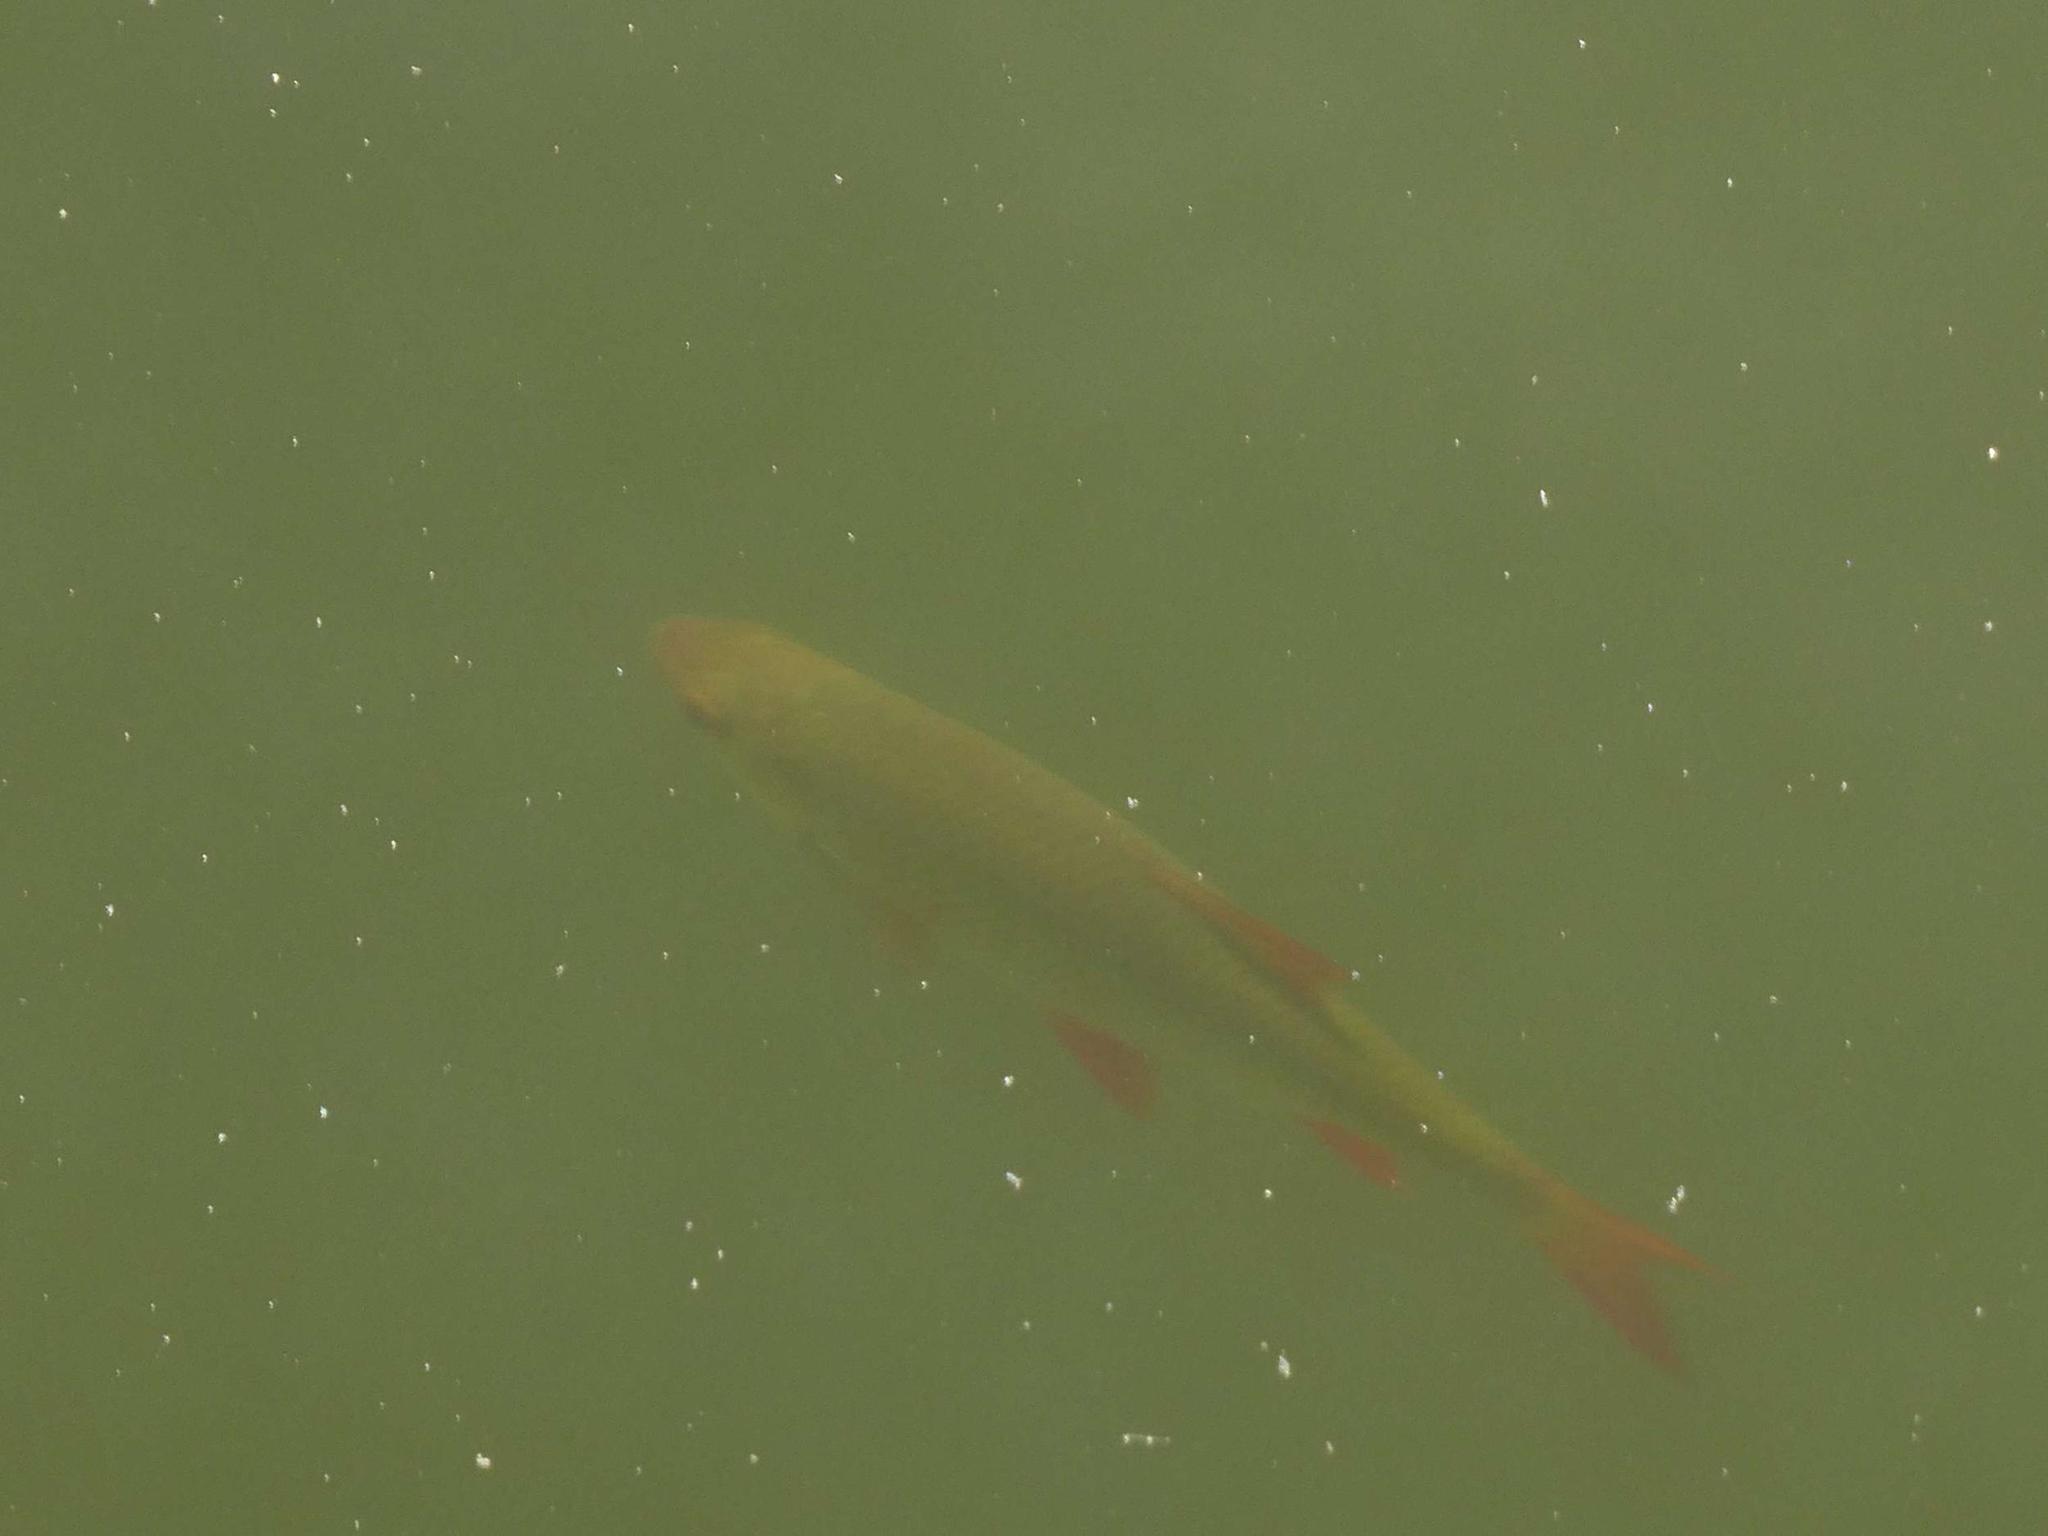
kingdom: Animalia
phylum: Chordata
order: Cypriniformes
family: Cyprinidae
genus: Scardinius
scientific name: Scardinius erythrophthalmus
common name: Rudd
